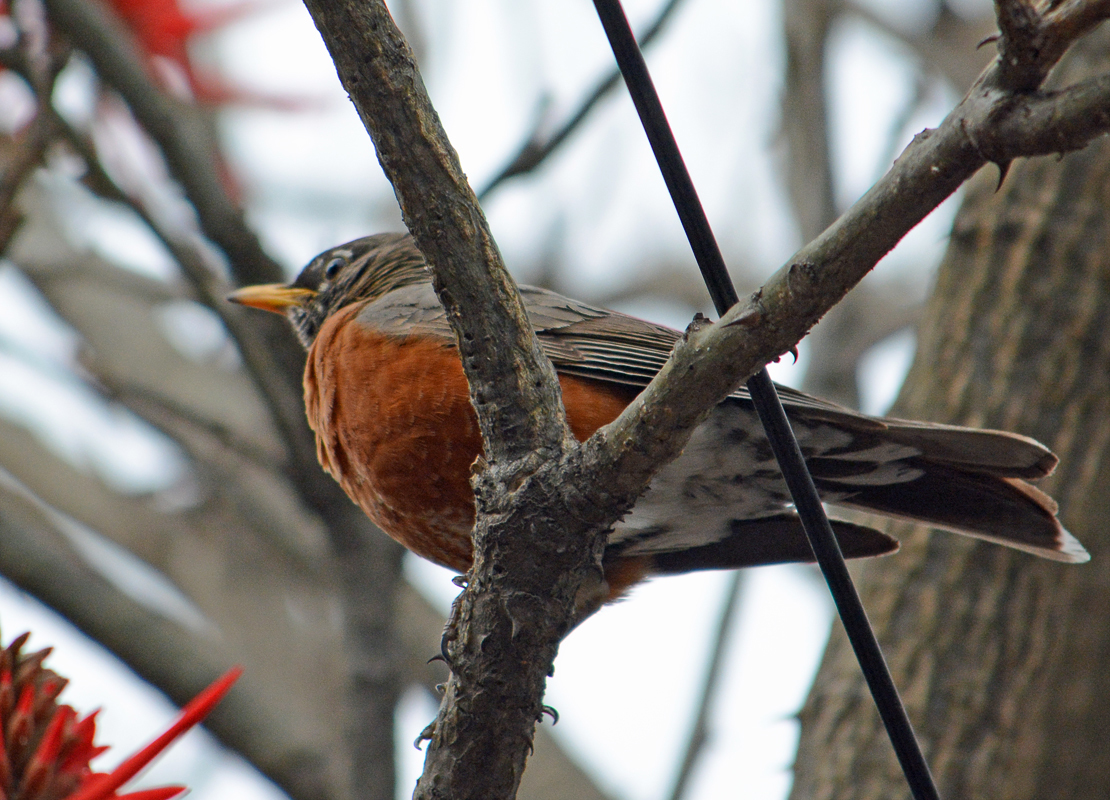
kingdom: Animalia
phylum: Chordata
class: Aves
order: Passeriformes
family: Turdidae
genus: Turdus
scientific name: Turdus migratorius
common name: American robin
